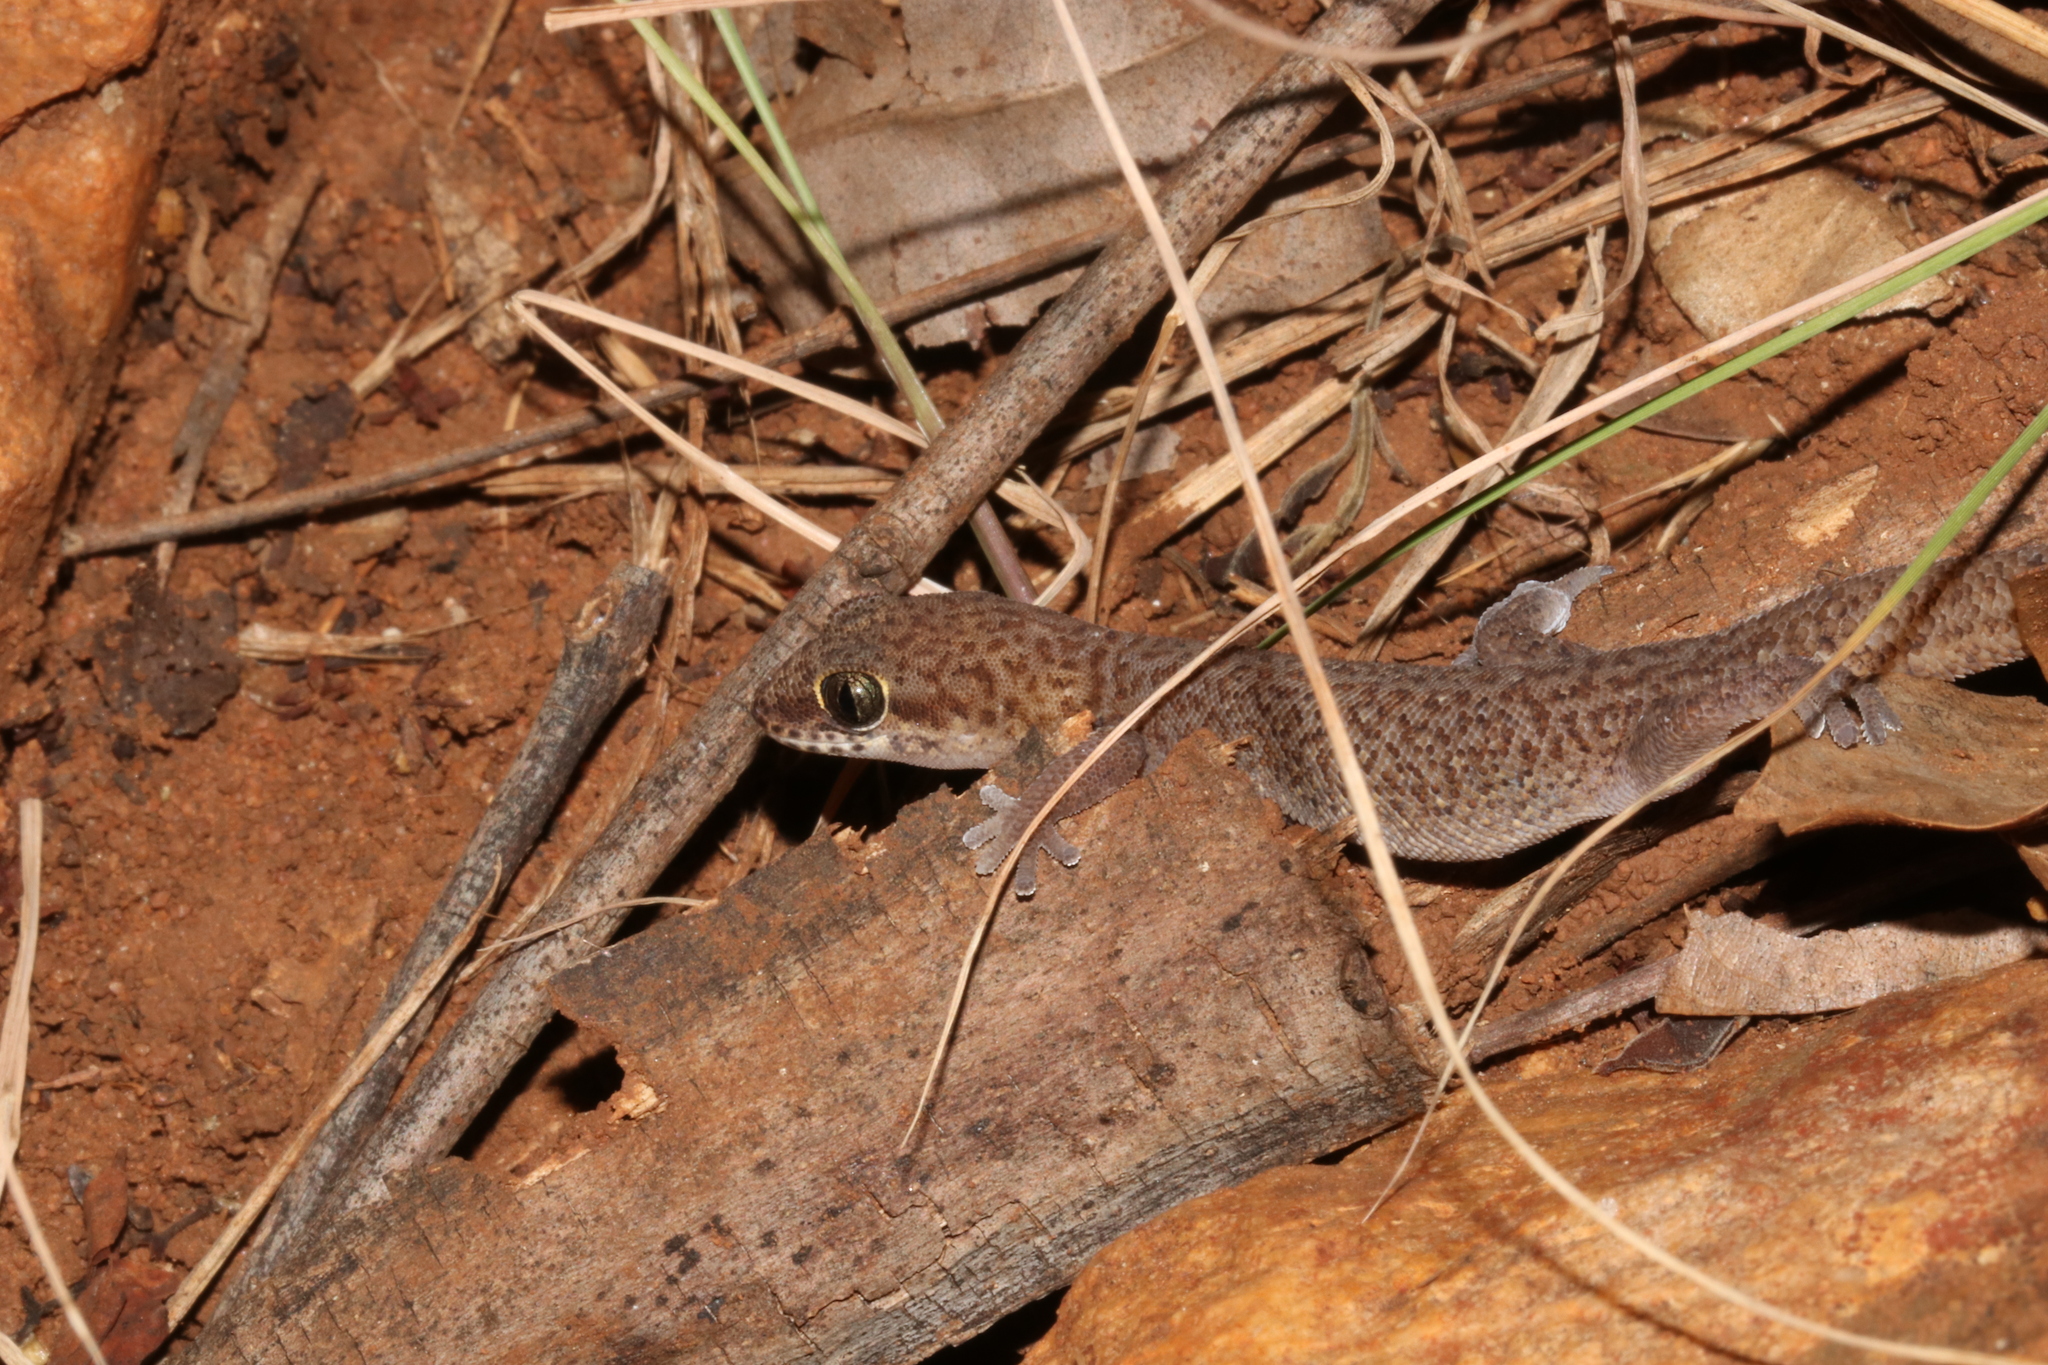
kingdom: Animalia
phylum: Chordata
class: Squamata
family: Gekkonidae
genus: Pachydactylus
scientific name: Pachydactylus punctatus
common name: Pointed thick-toed gecko
